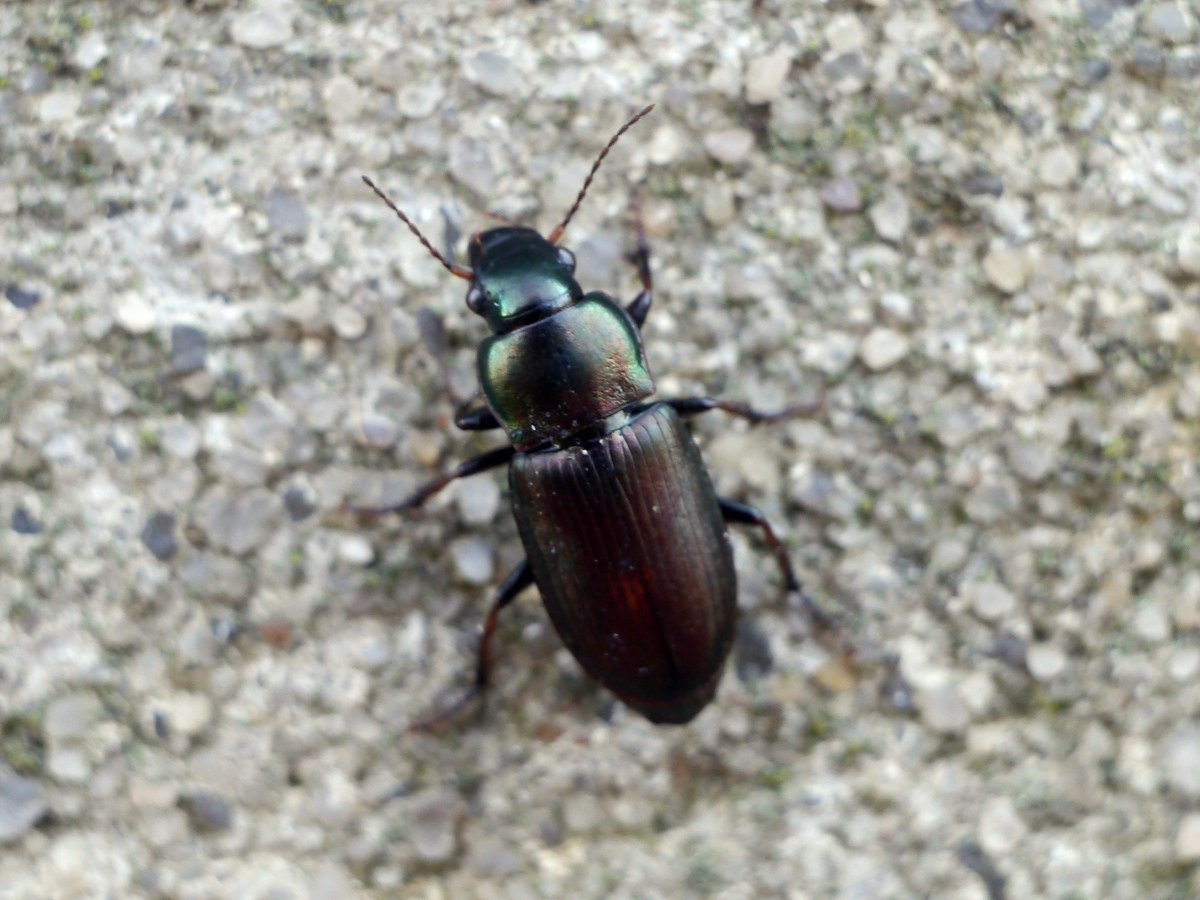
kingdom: Animalia
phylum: Arthropoda
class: Insecta
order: Coleoptera
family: Carabidae
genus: Harpalus
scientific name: Harpalus distinguendus
